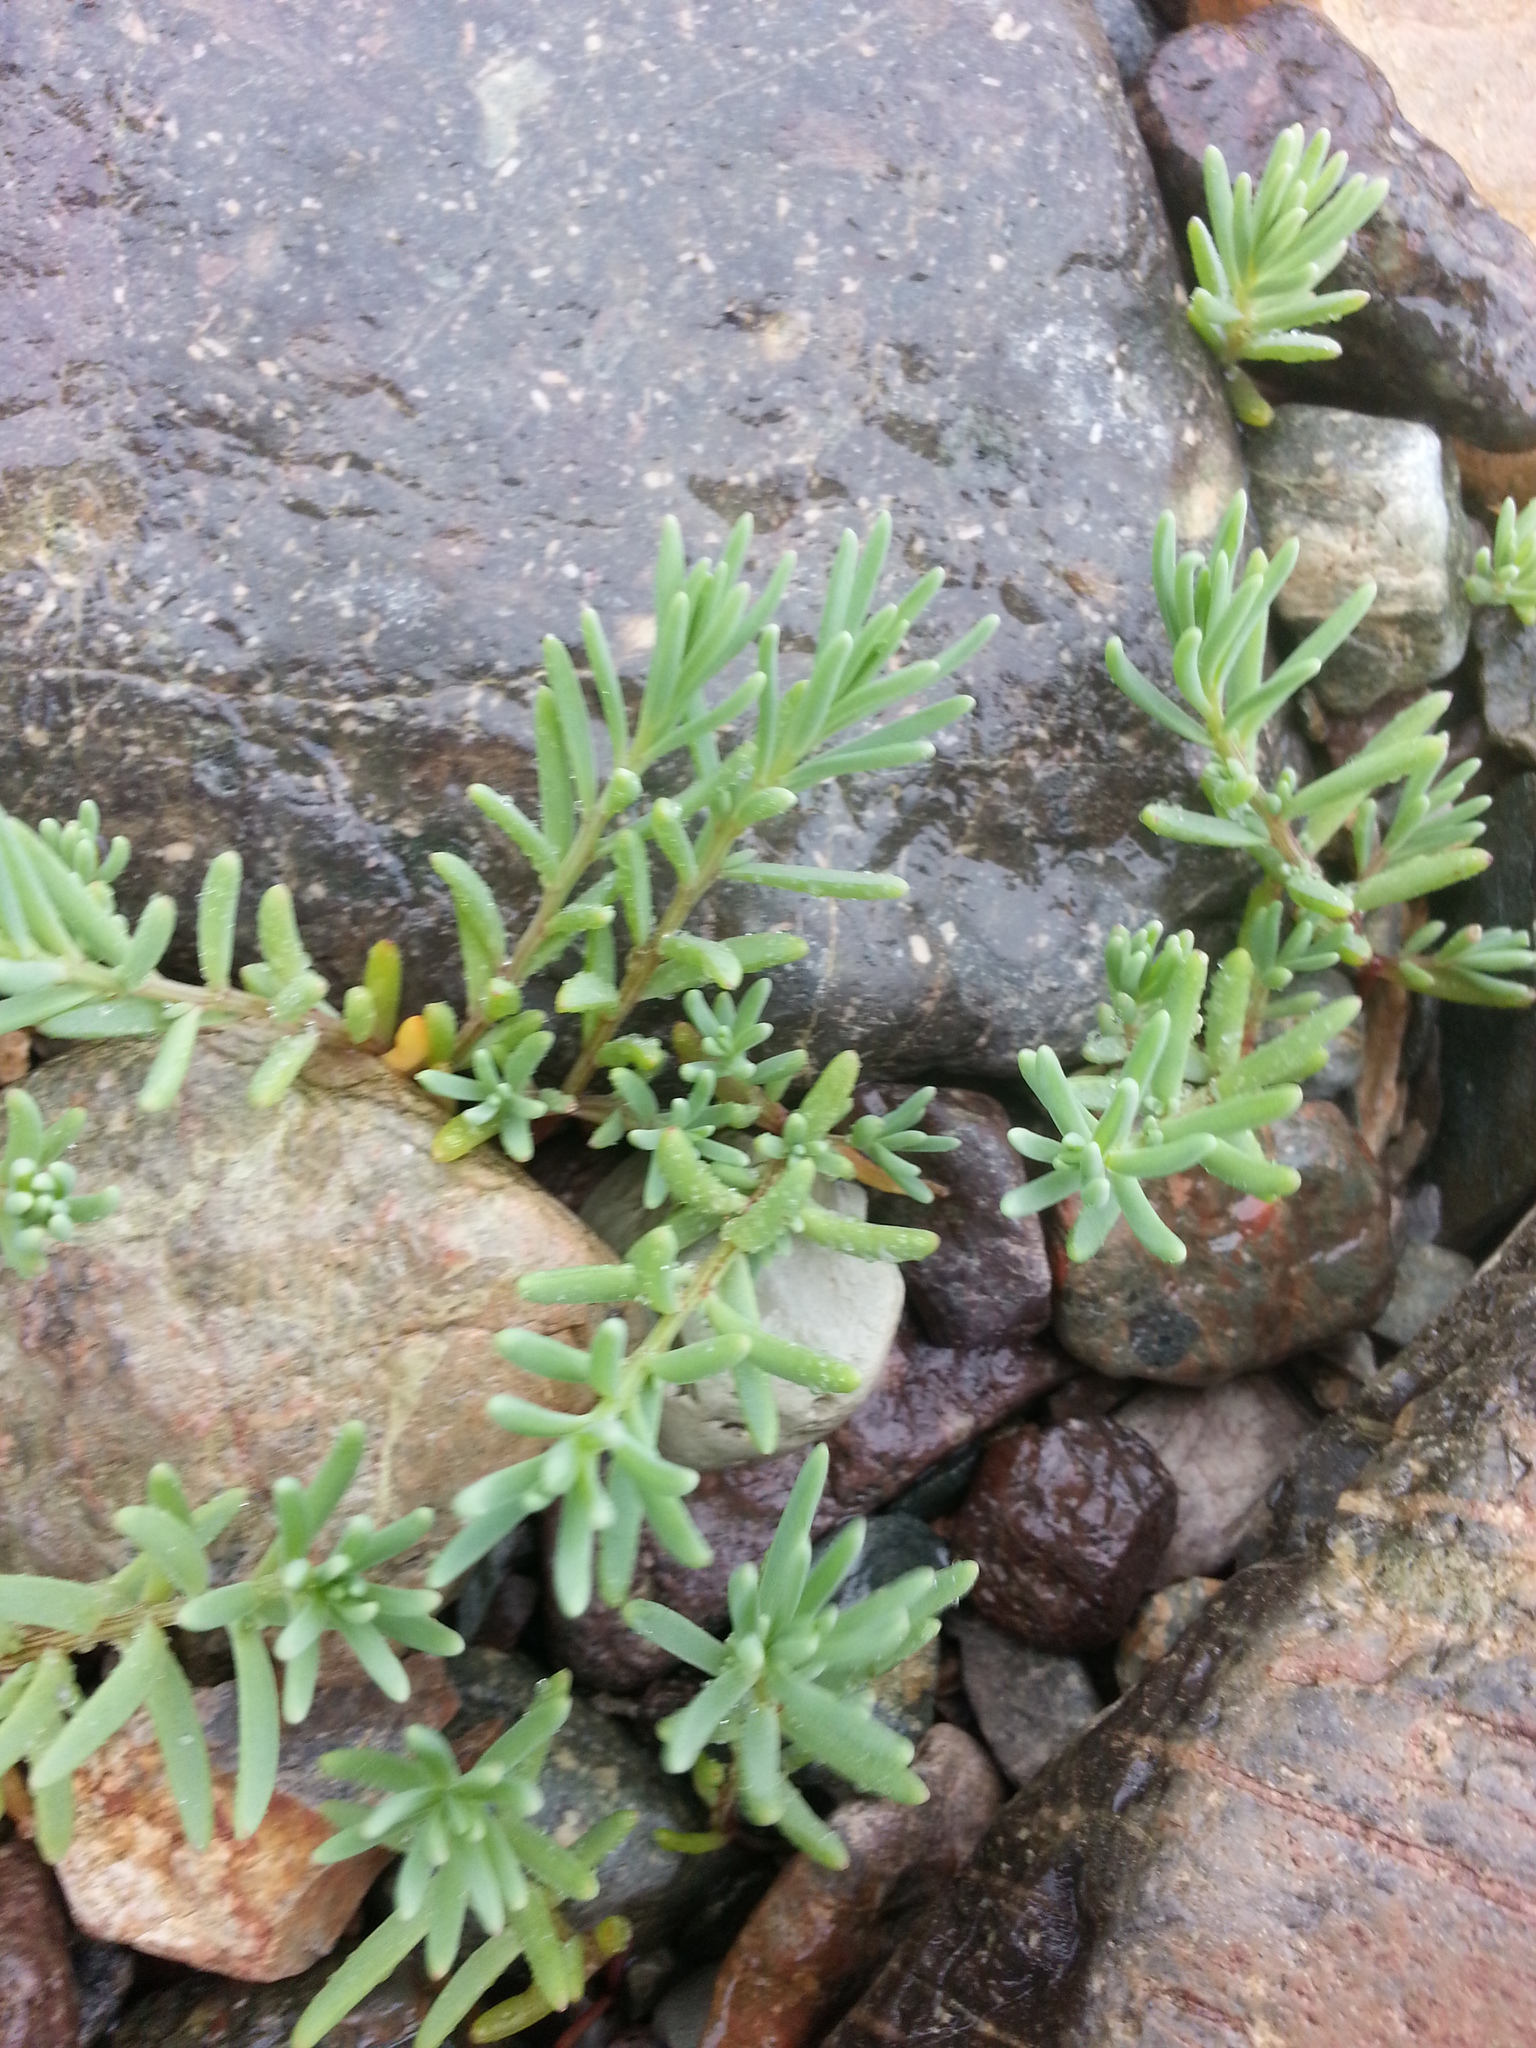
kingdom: Plantae
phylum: Tracheophyta
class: Magnoliopsida
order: Caryophyllales
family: Amaranthaceae
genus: Suaeda
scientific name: Suaeda maritima
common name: Annual sea-blite
